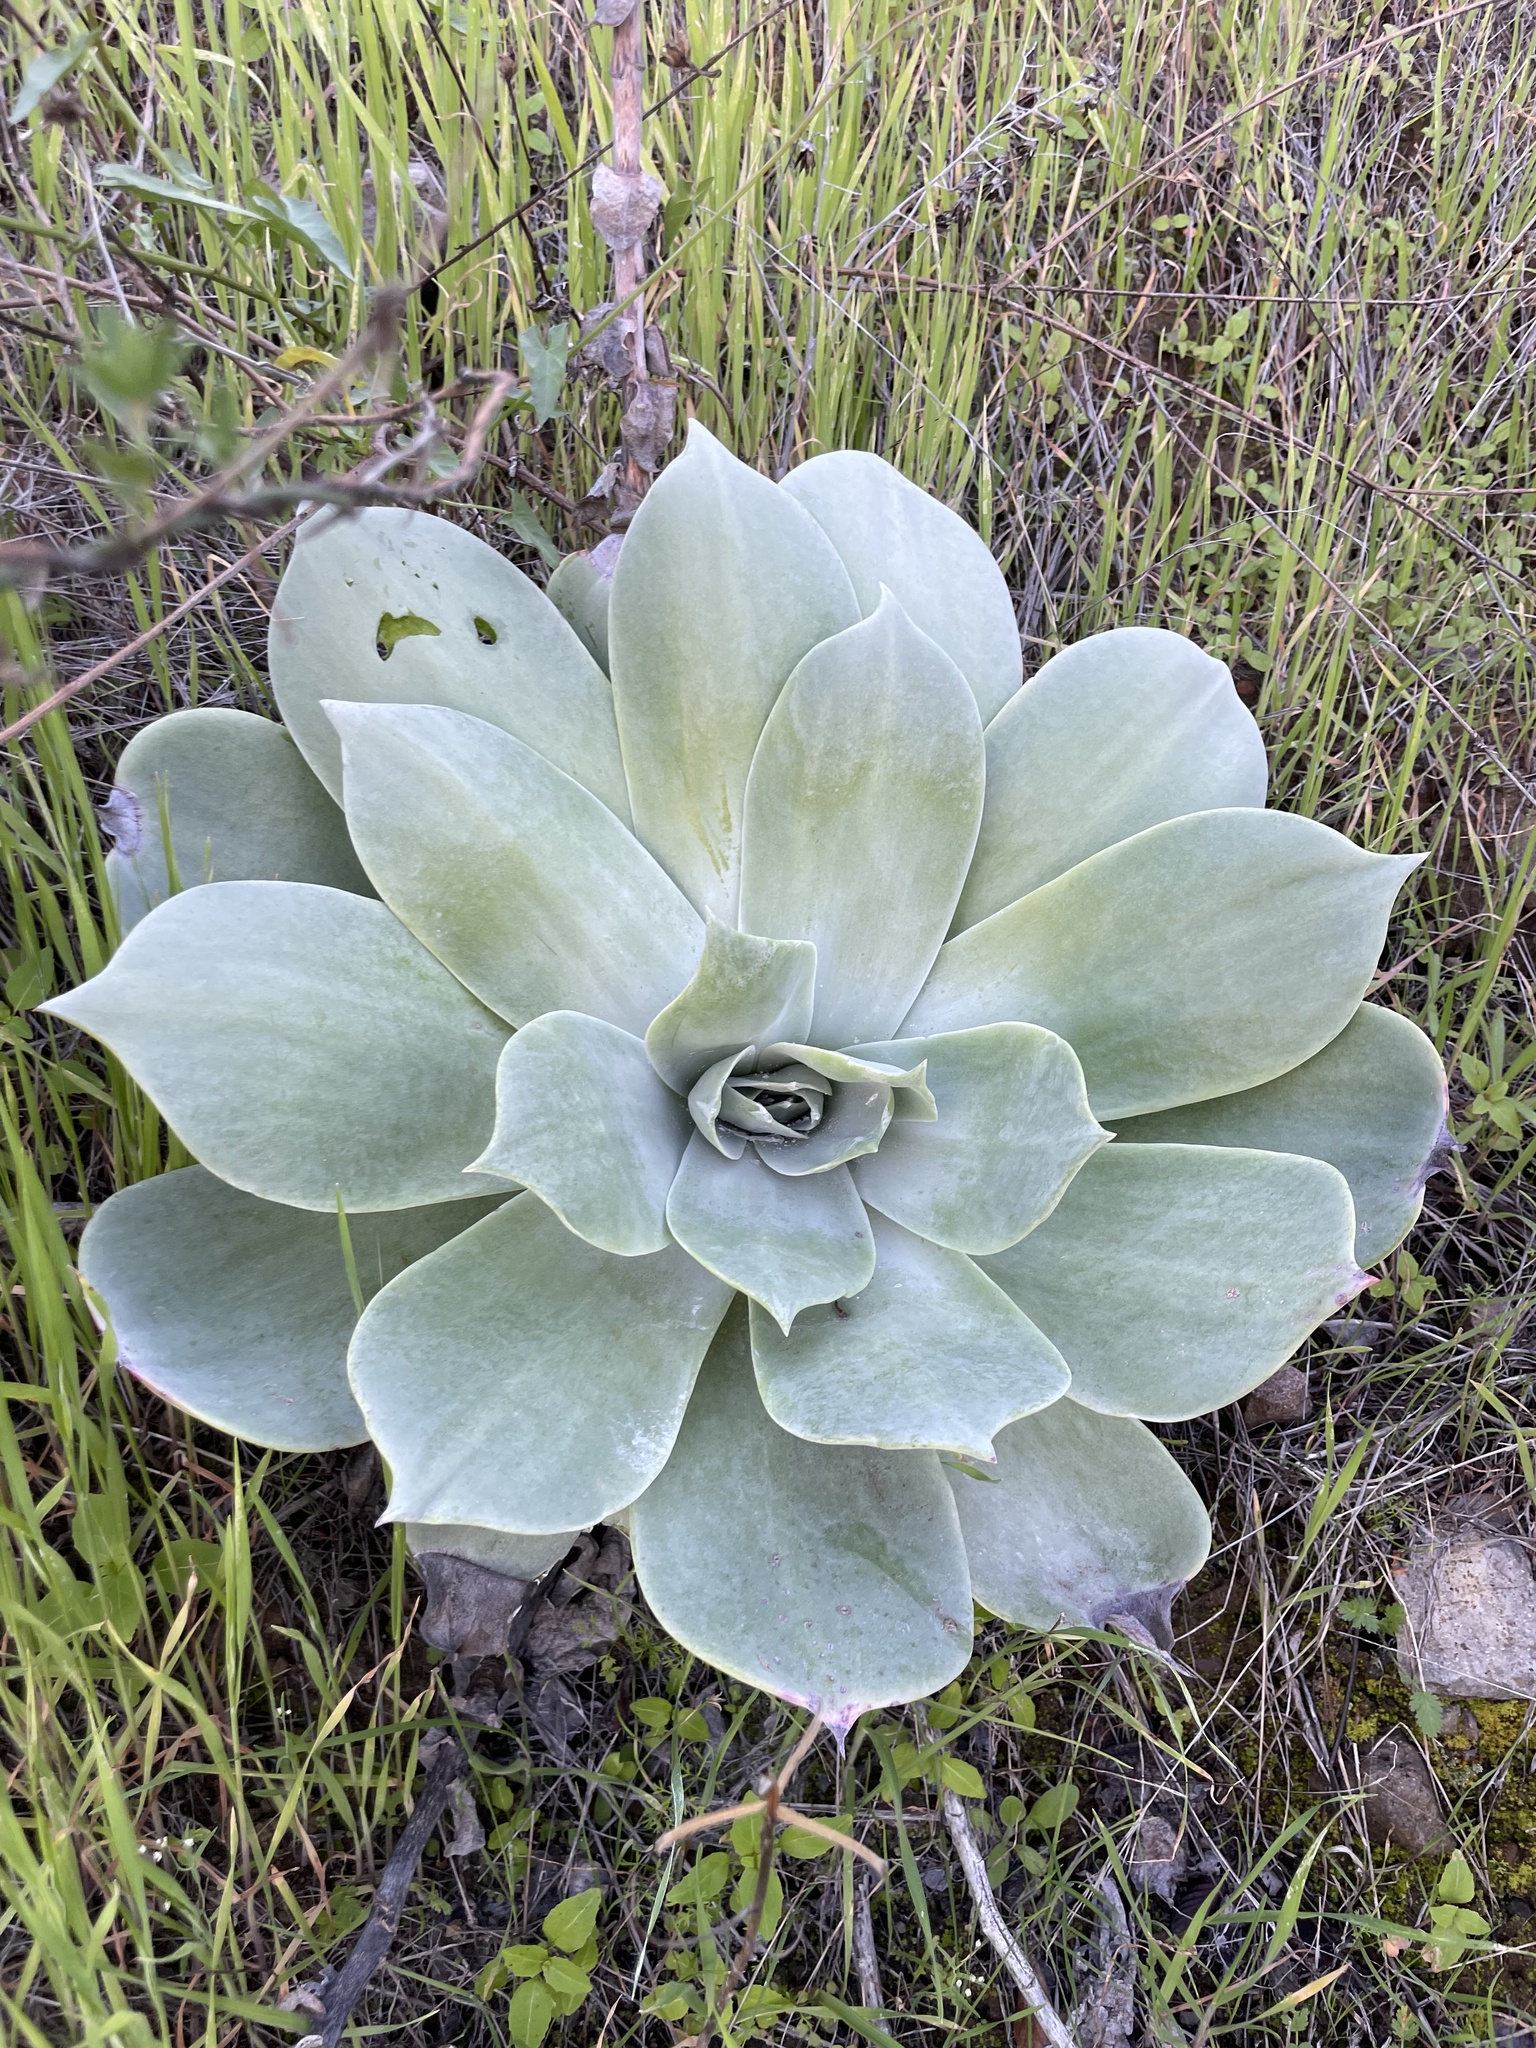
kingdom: Plantae
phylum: Tracheophyta
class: Magnoliopsida
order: Saxifragales
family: Crassulaceae
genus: Dudleya
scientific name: Dudleya pulverulenta
